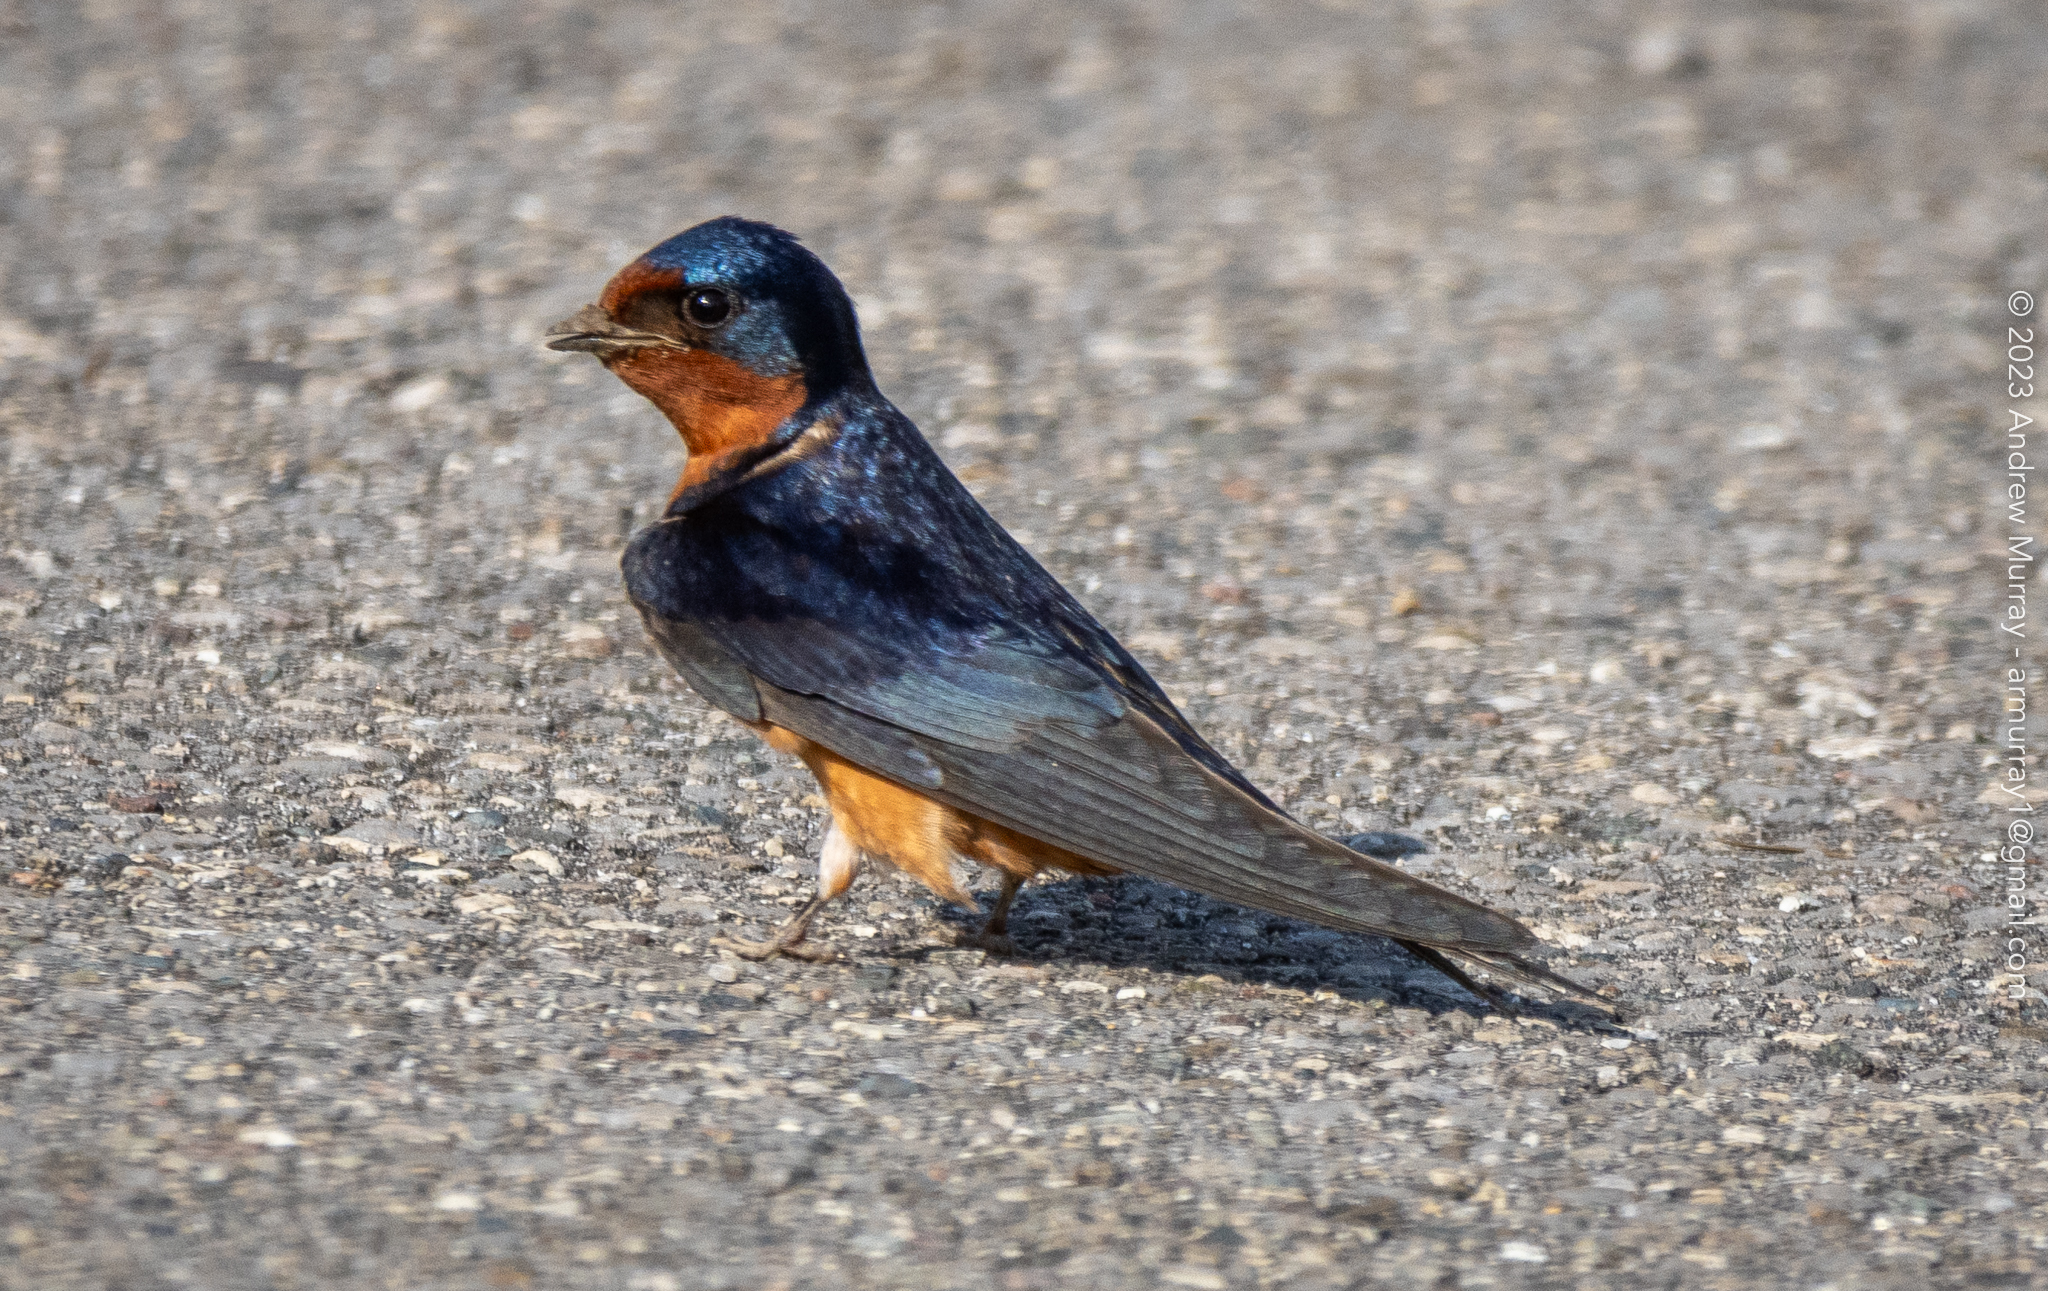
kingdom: Animalia
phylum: Chordata
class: Aves
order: Passeriformes
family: Hirundinidae
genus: Hirundo
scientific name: Hirundo rustica
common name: Barn swallow
